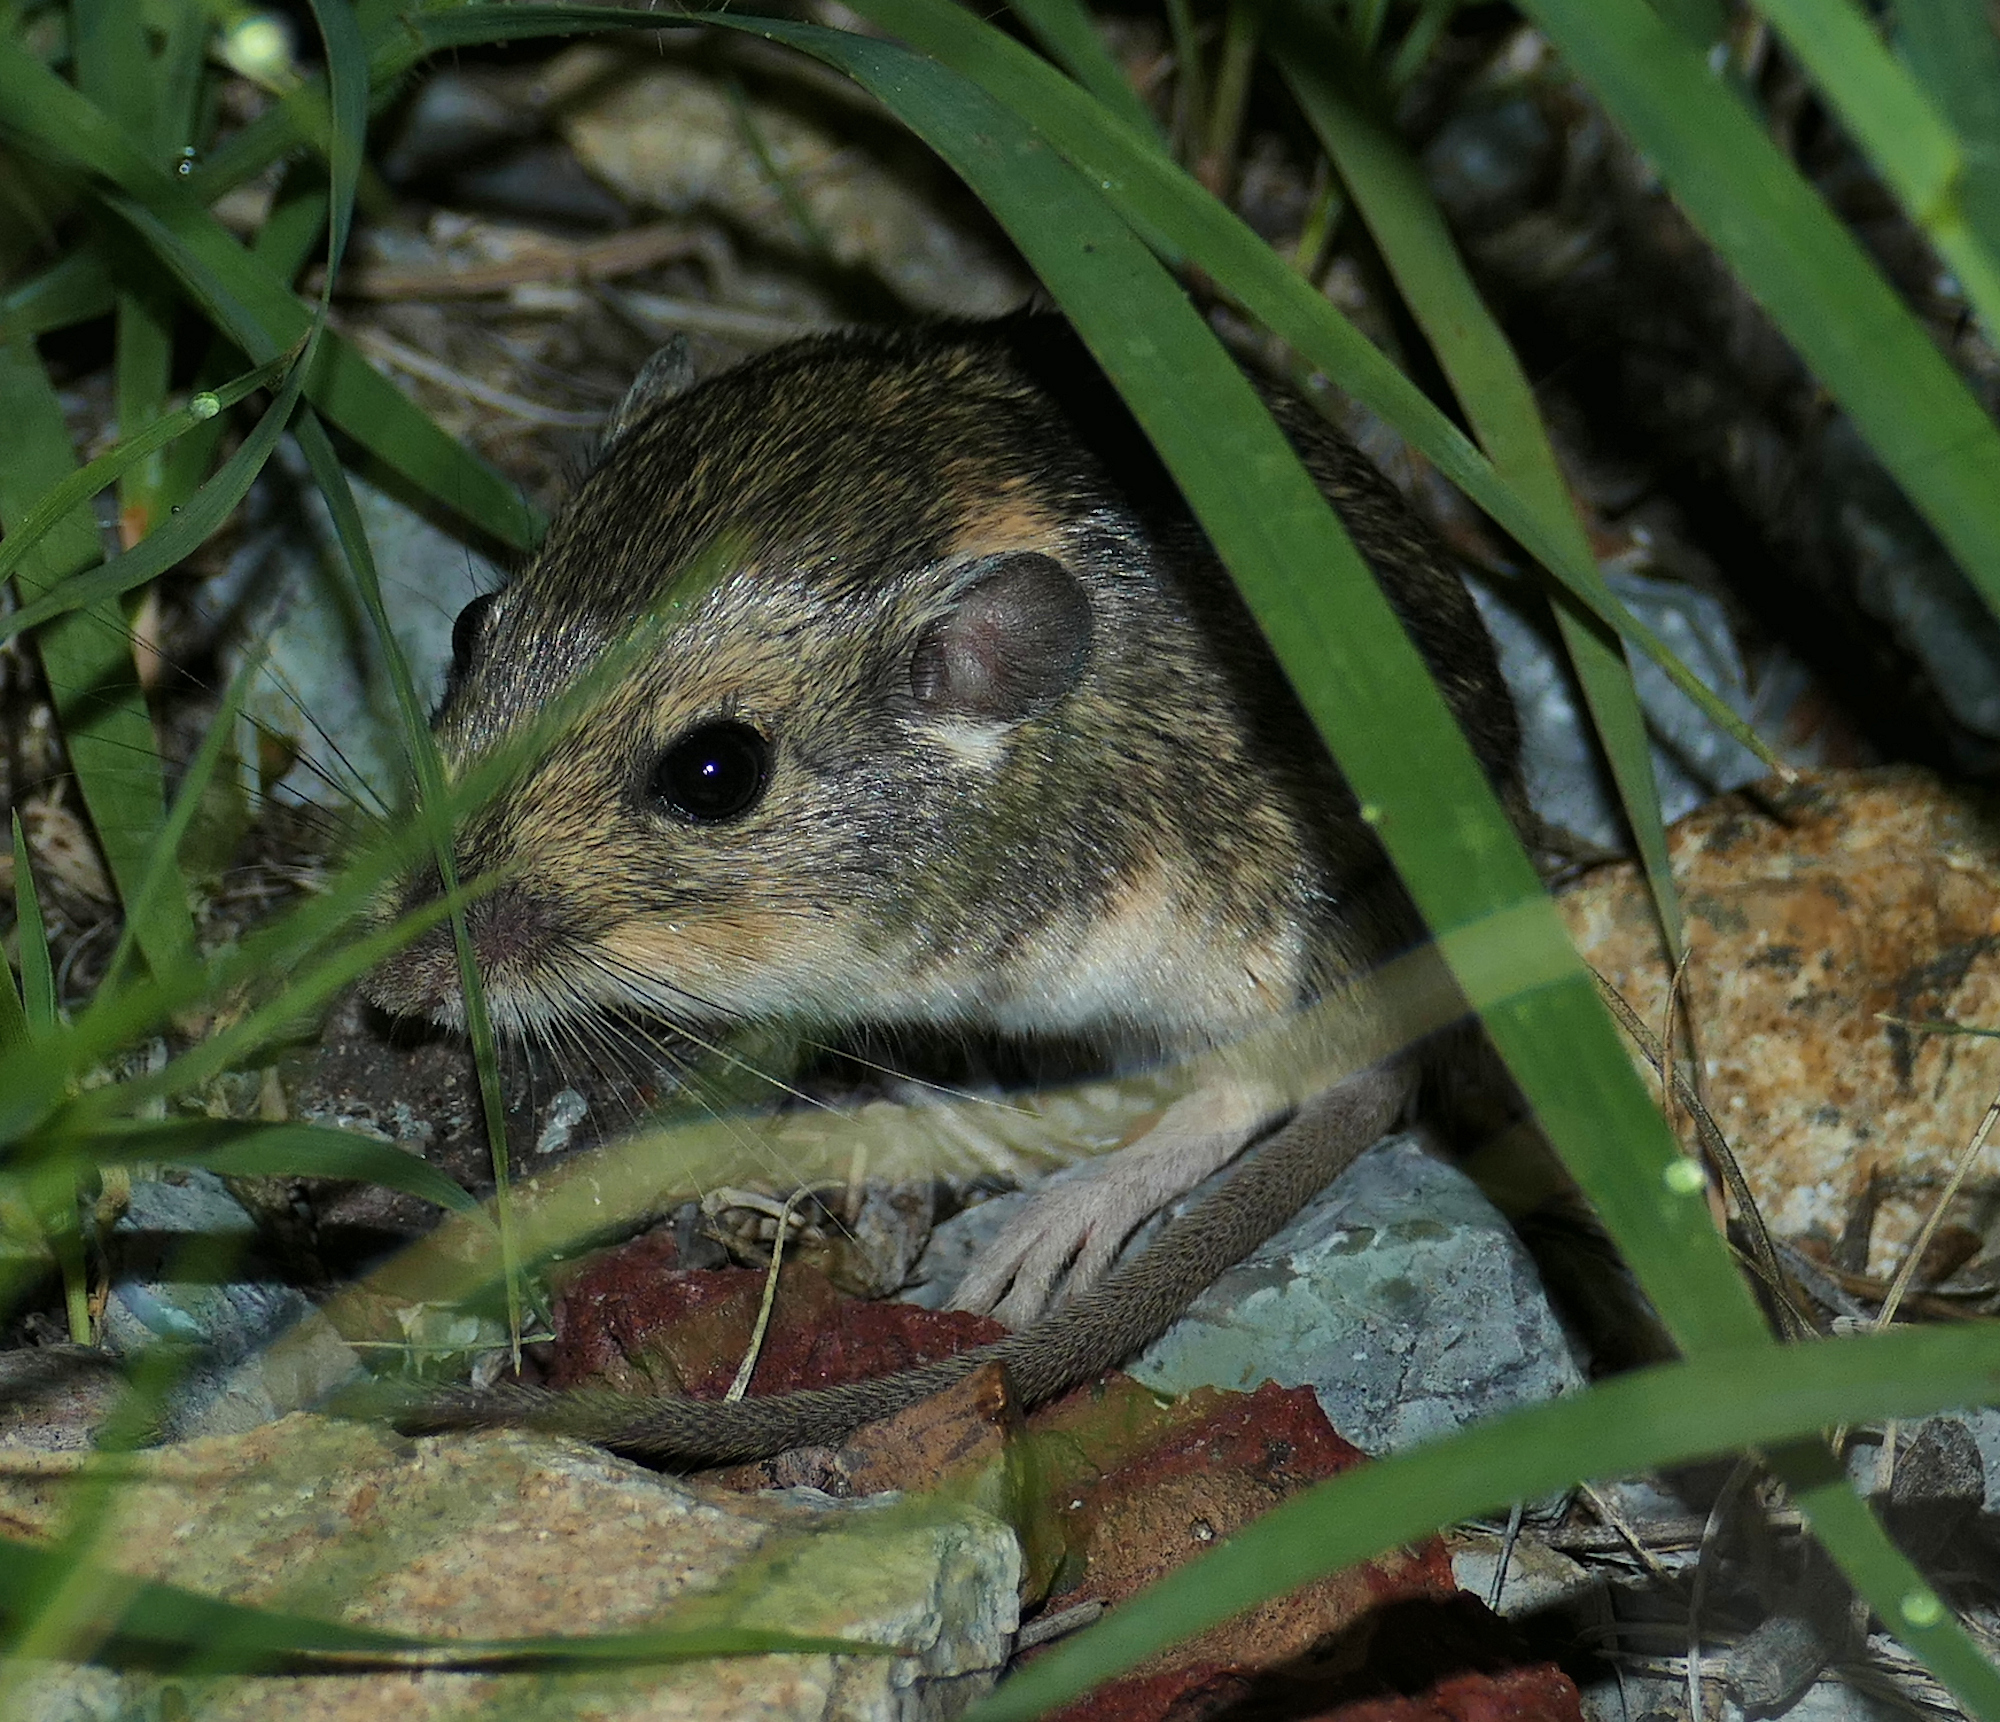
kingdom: Animalia
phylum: Chordata
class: Mammalia
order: Rodentia
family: Heteromyidae
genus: Perognathus
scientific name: Perognathus flavus
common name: Silky pocket mouse
